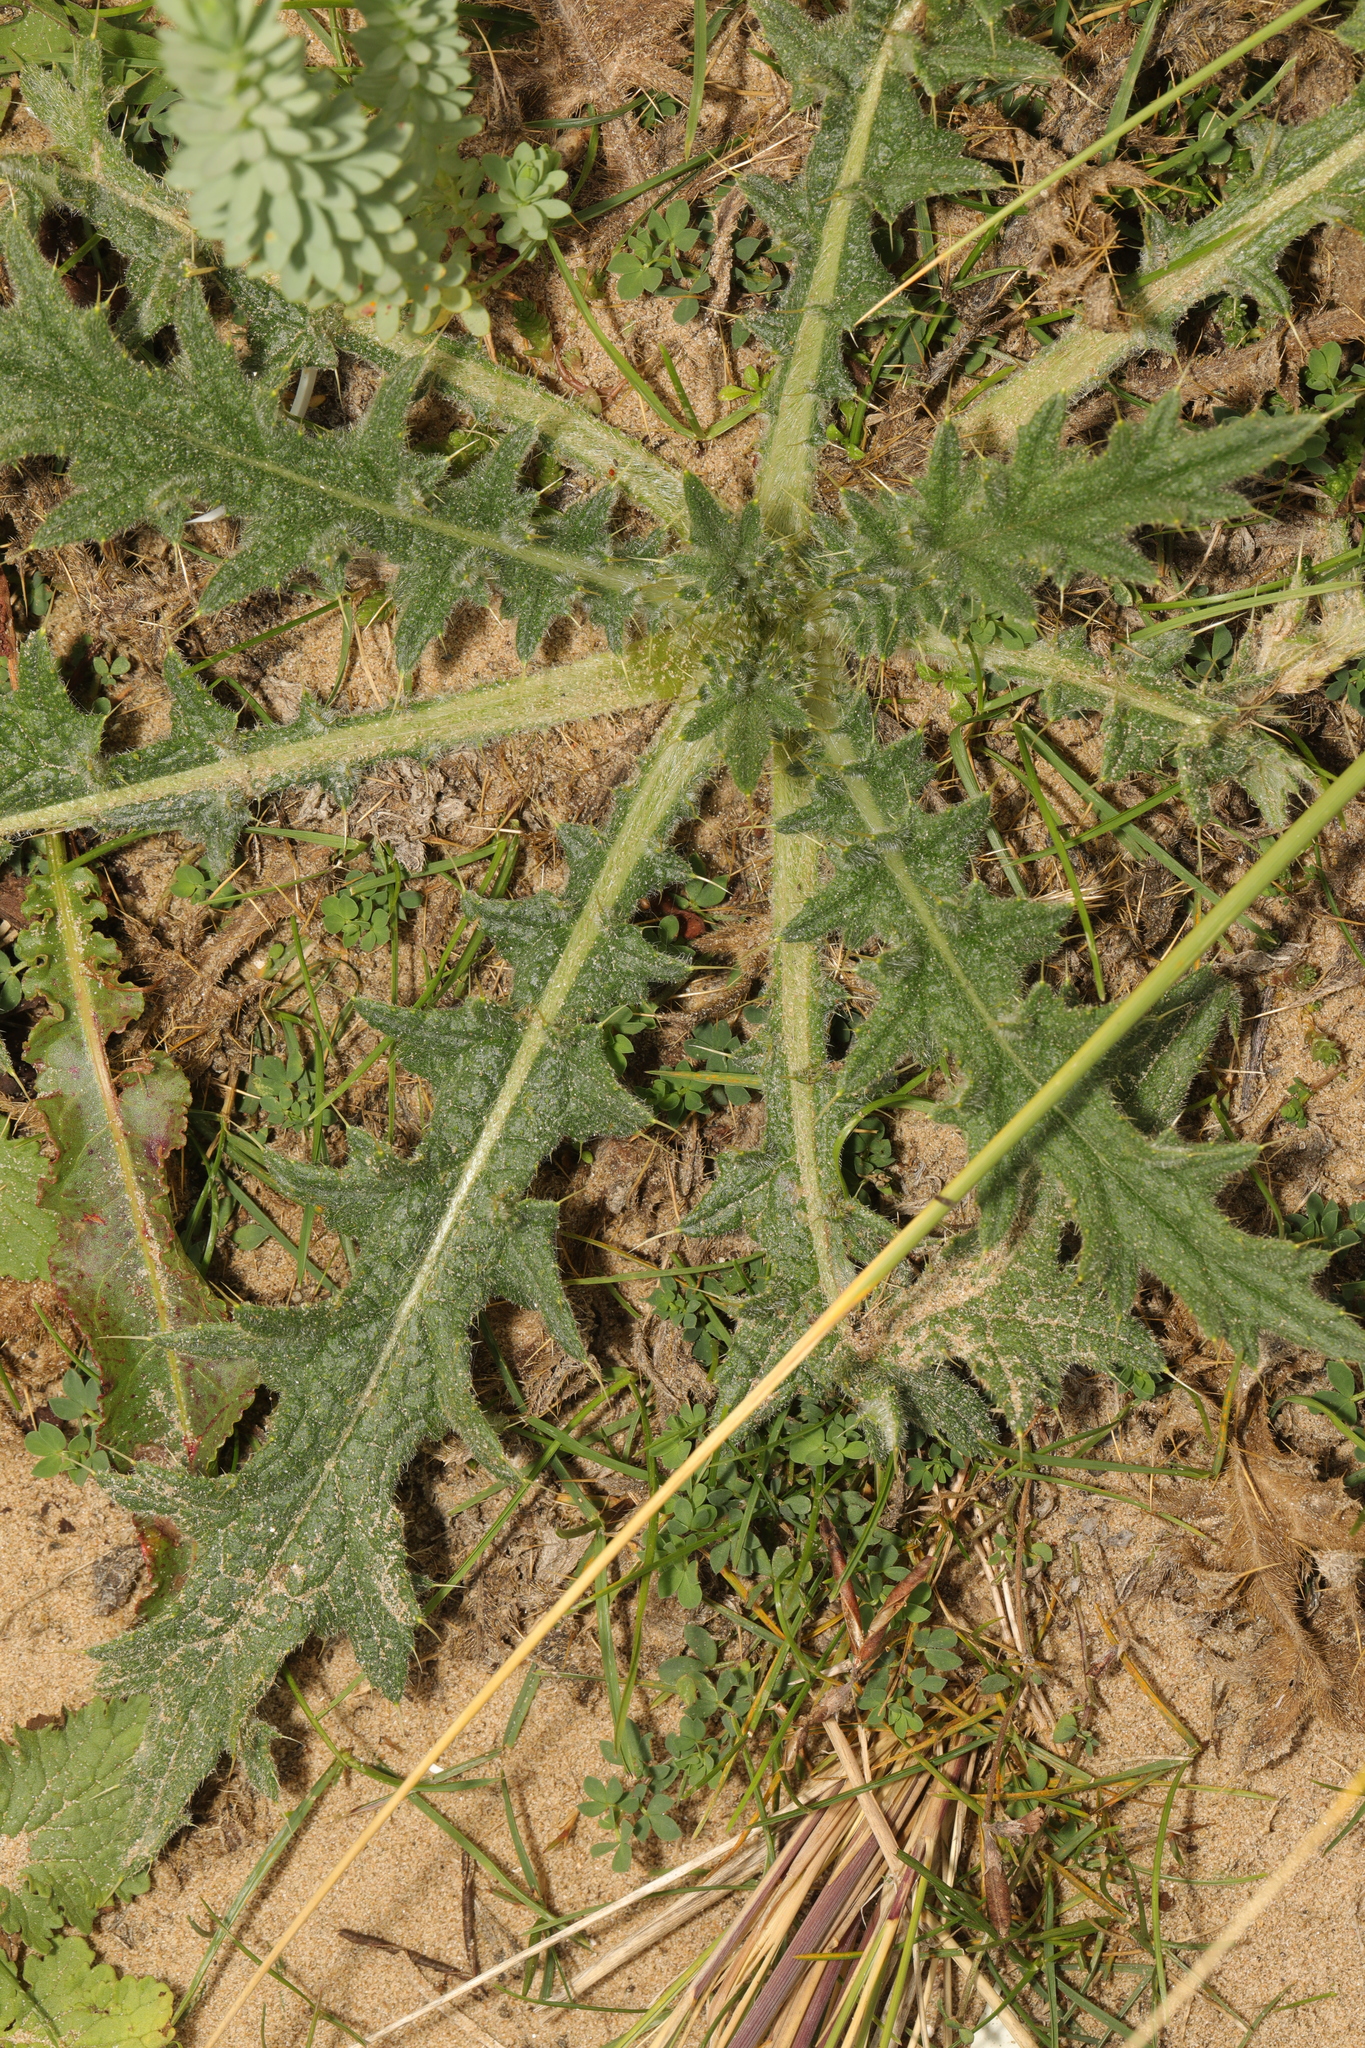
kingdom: Plantae
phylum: Tracheophyta
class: Magnoliopsida
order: Asterales
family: Asteraceae
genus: Cirsium
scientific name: Cirsium vulgare
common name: Bull thistle
